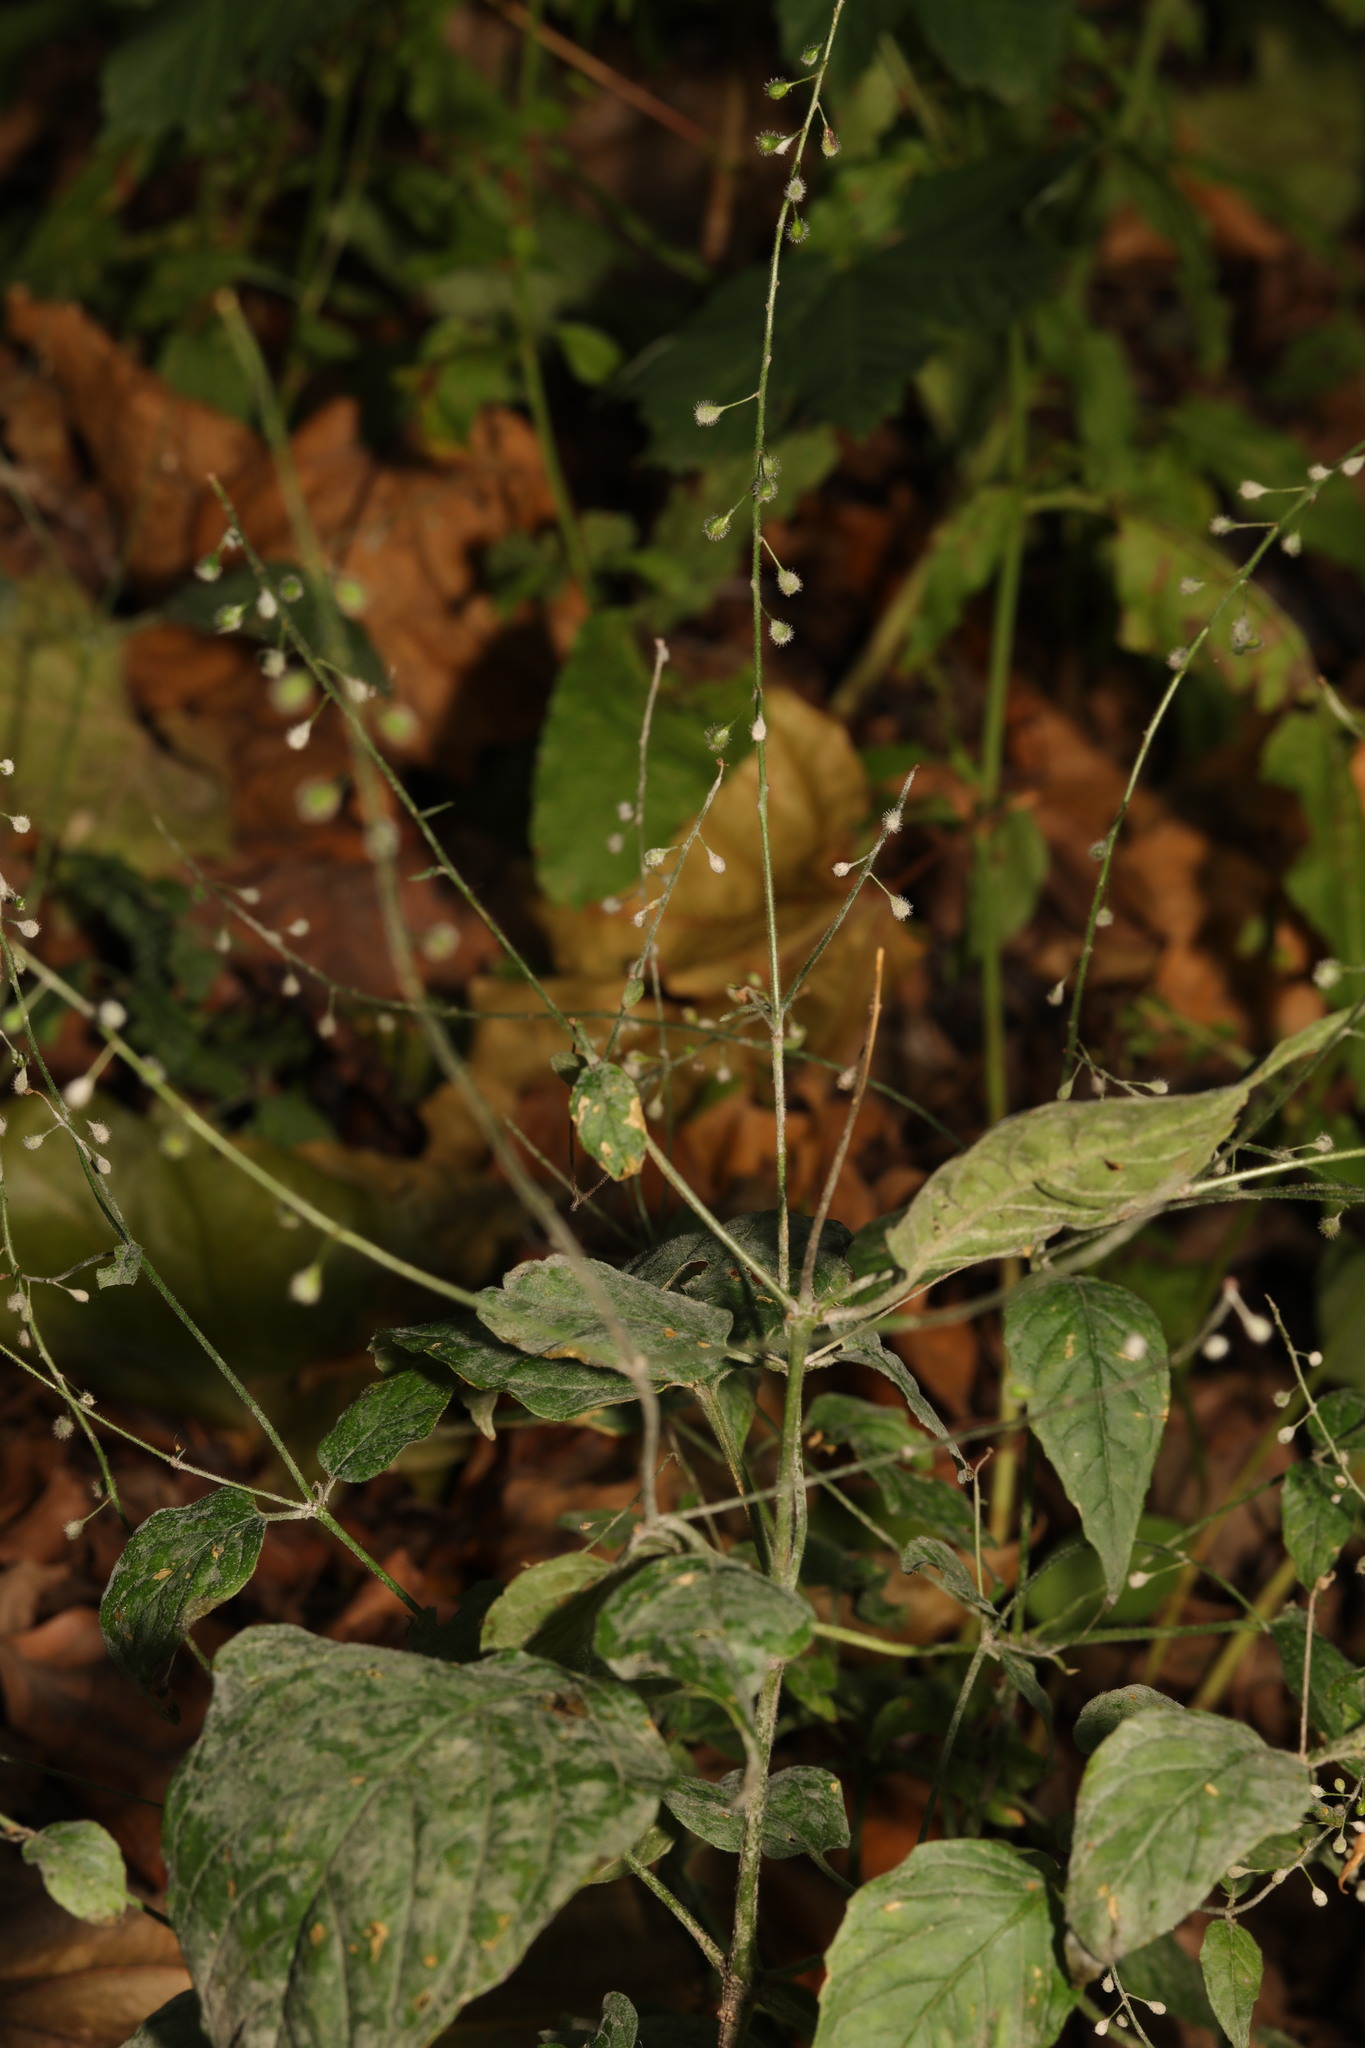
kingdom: Plantae
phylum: Tracheophyta
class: Magnoliopsida
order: Myrtales
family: Onagraceae
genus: Circaea
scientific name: Circaea lutetiana
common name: Enchanter's-nightshade
